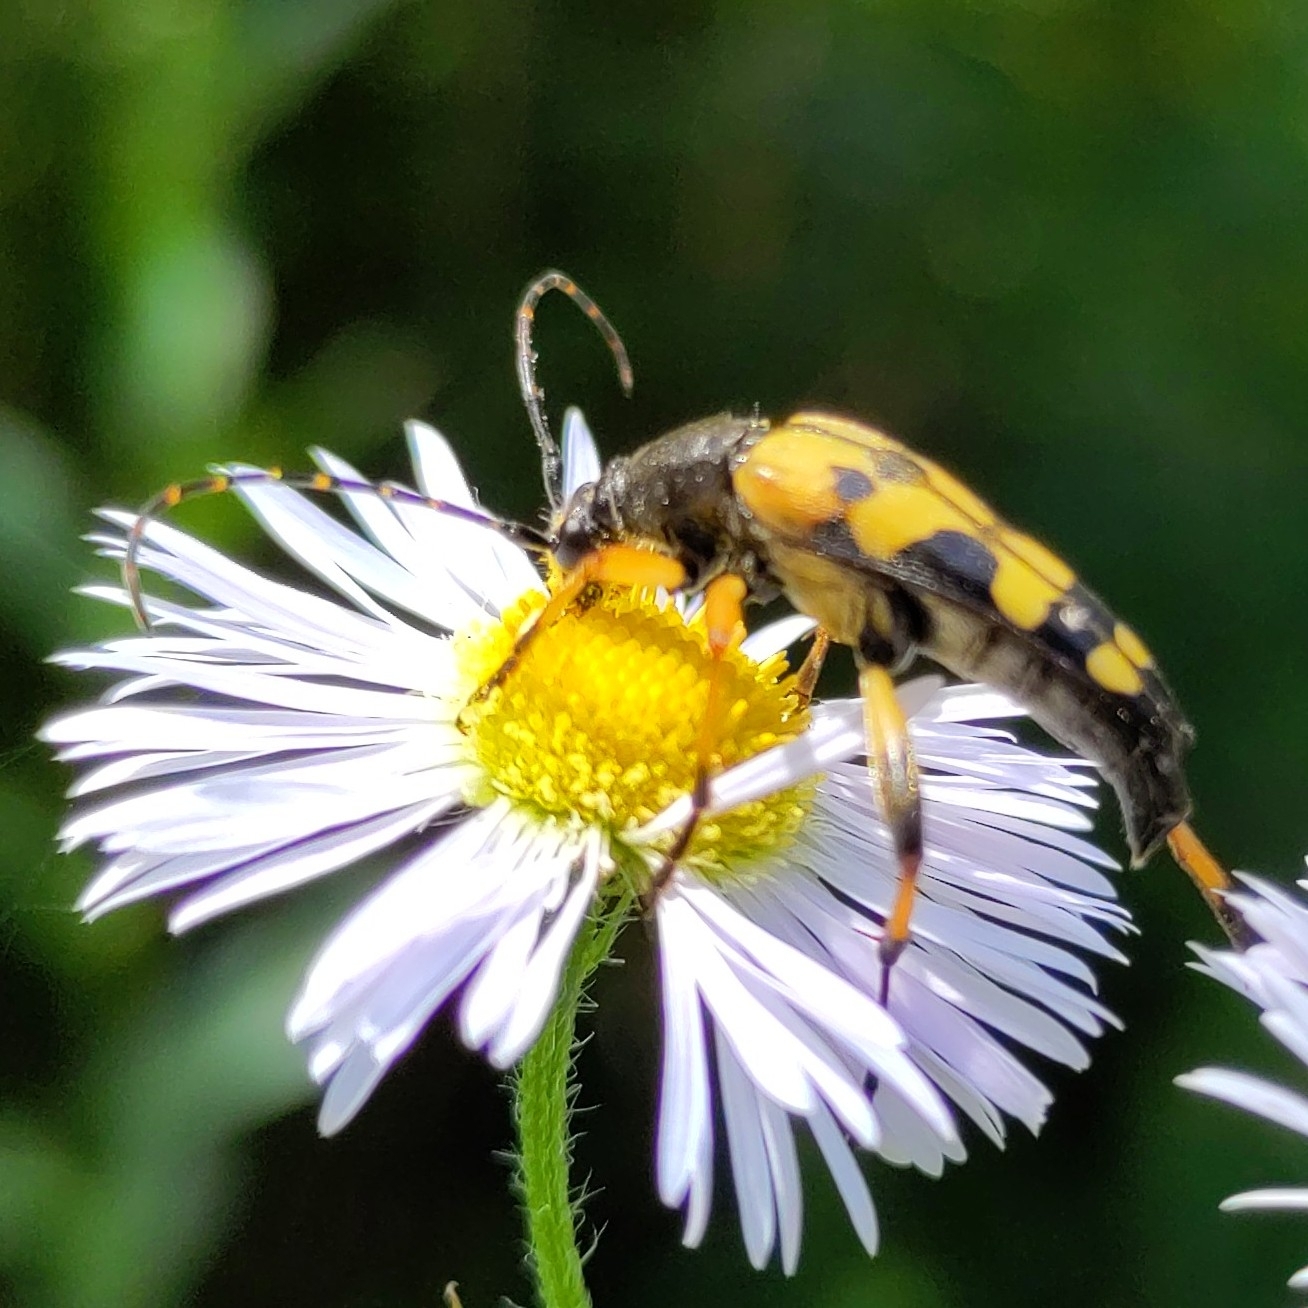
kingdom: Animalia
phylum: Arthropoda
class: Insecta
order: Coleoptera
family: Cerambycidae
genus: Rutpela
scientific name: Rutpela maculata
